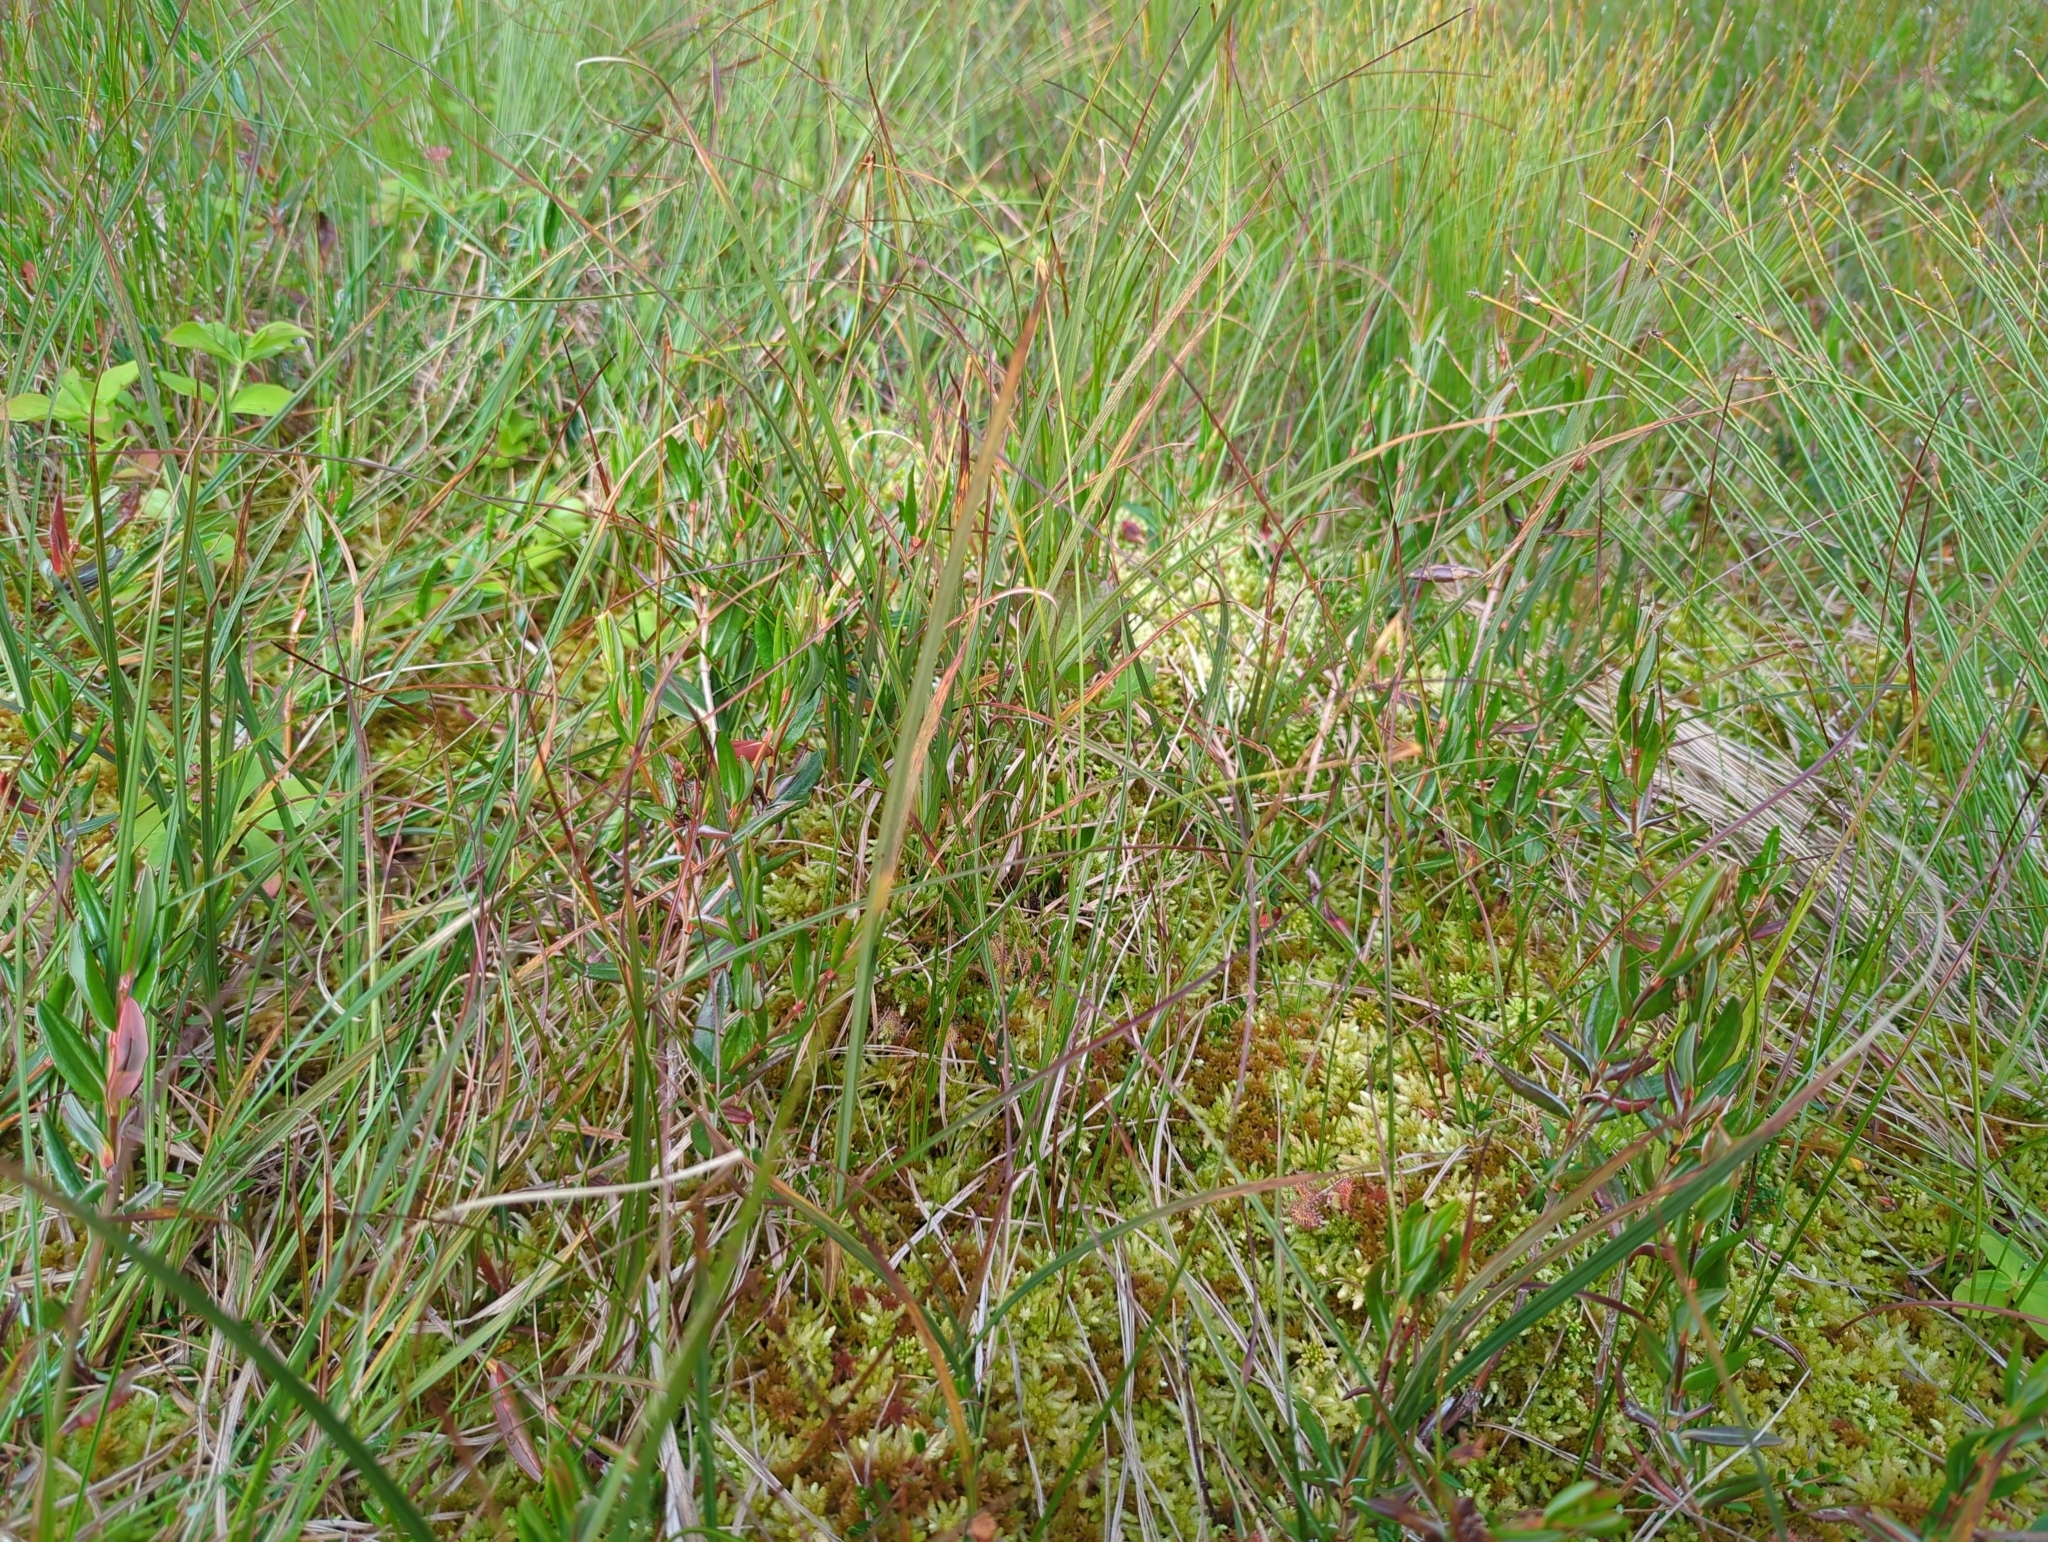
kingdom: Plantae
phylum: Tracheophyta
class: Liliopsida
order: Poales
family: Cyperaceae
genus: Carex
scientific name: Carex pauciflora
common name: Few-flowered sedge
